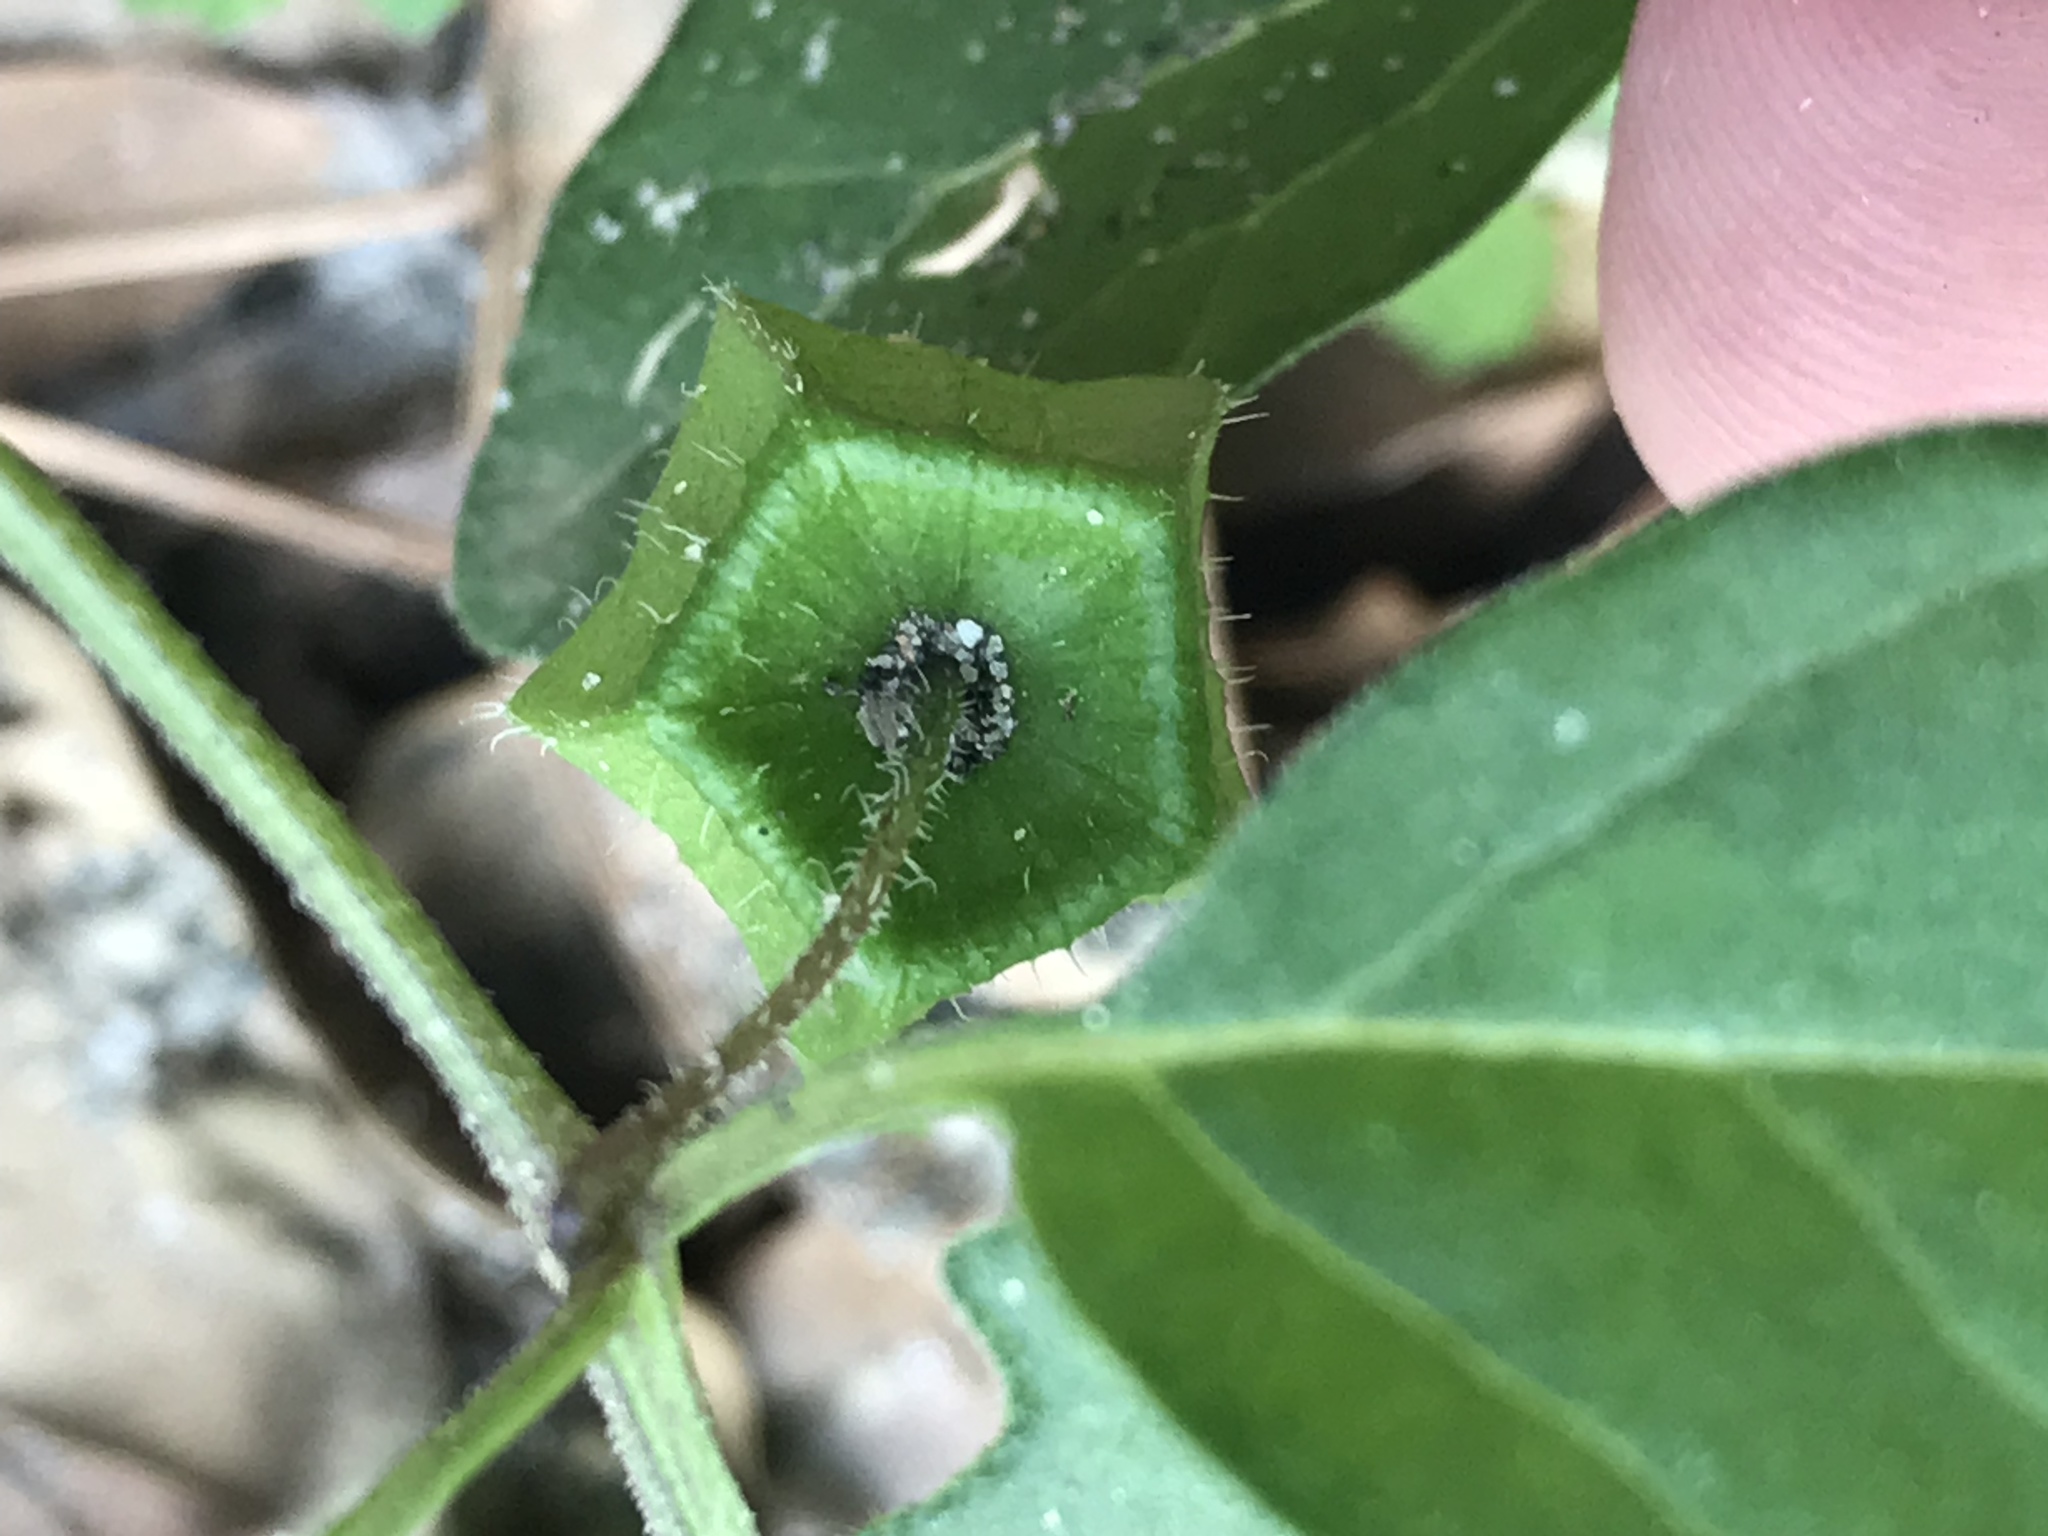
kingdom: Plantae
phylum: Tracheophyta
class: Magnoliopsida
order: Solanales
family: Solanaceae
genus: Physalis
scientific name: Physalis pubescens
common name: Downy ground-cherry
